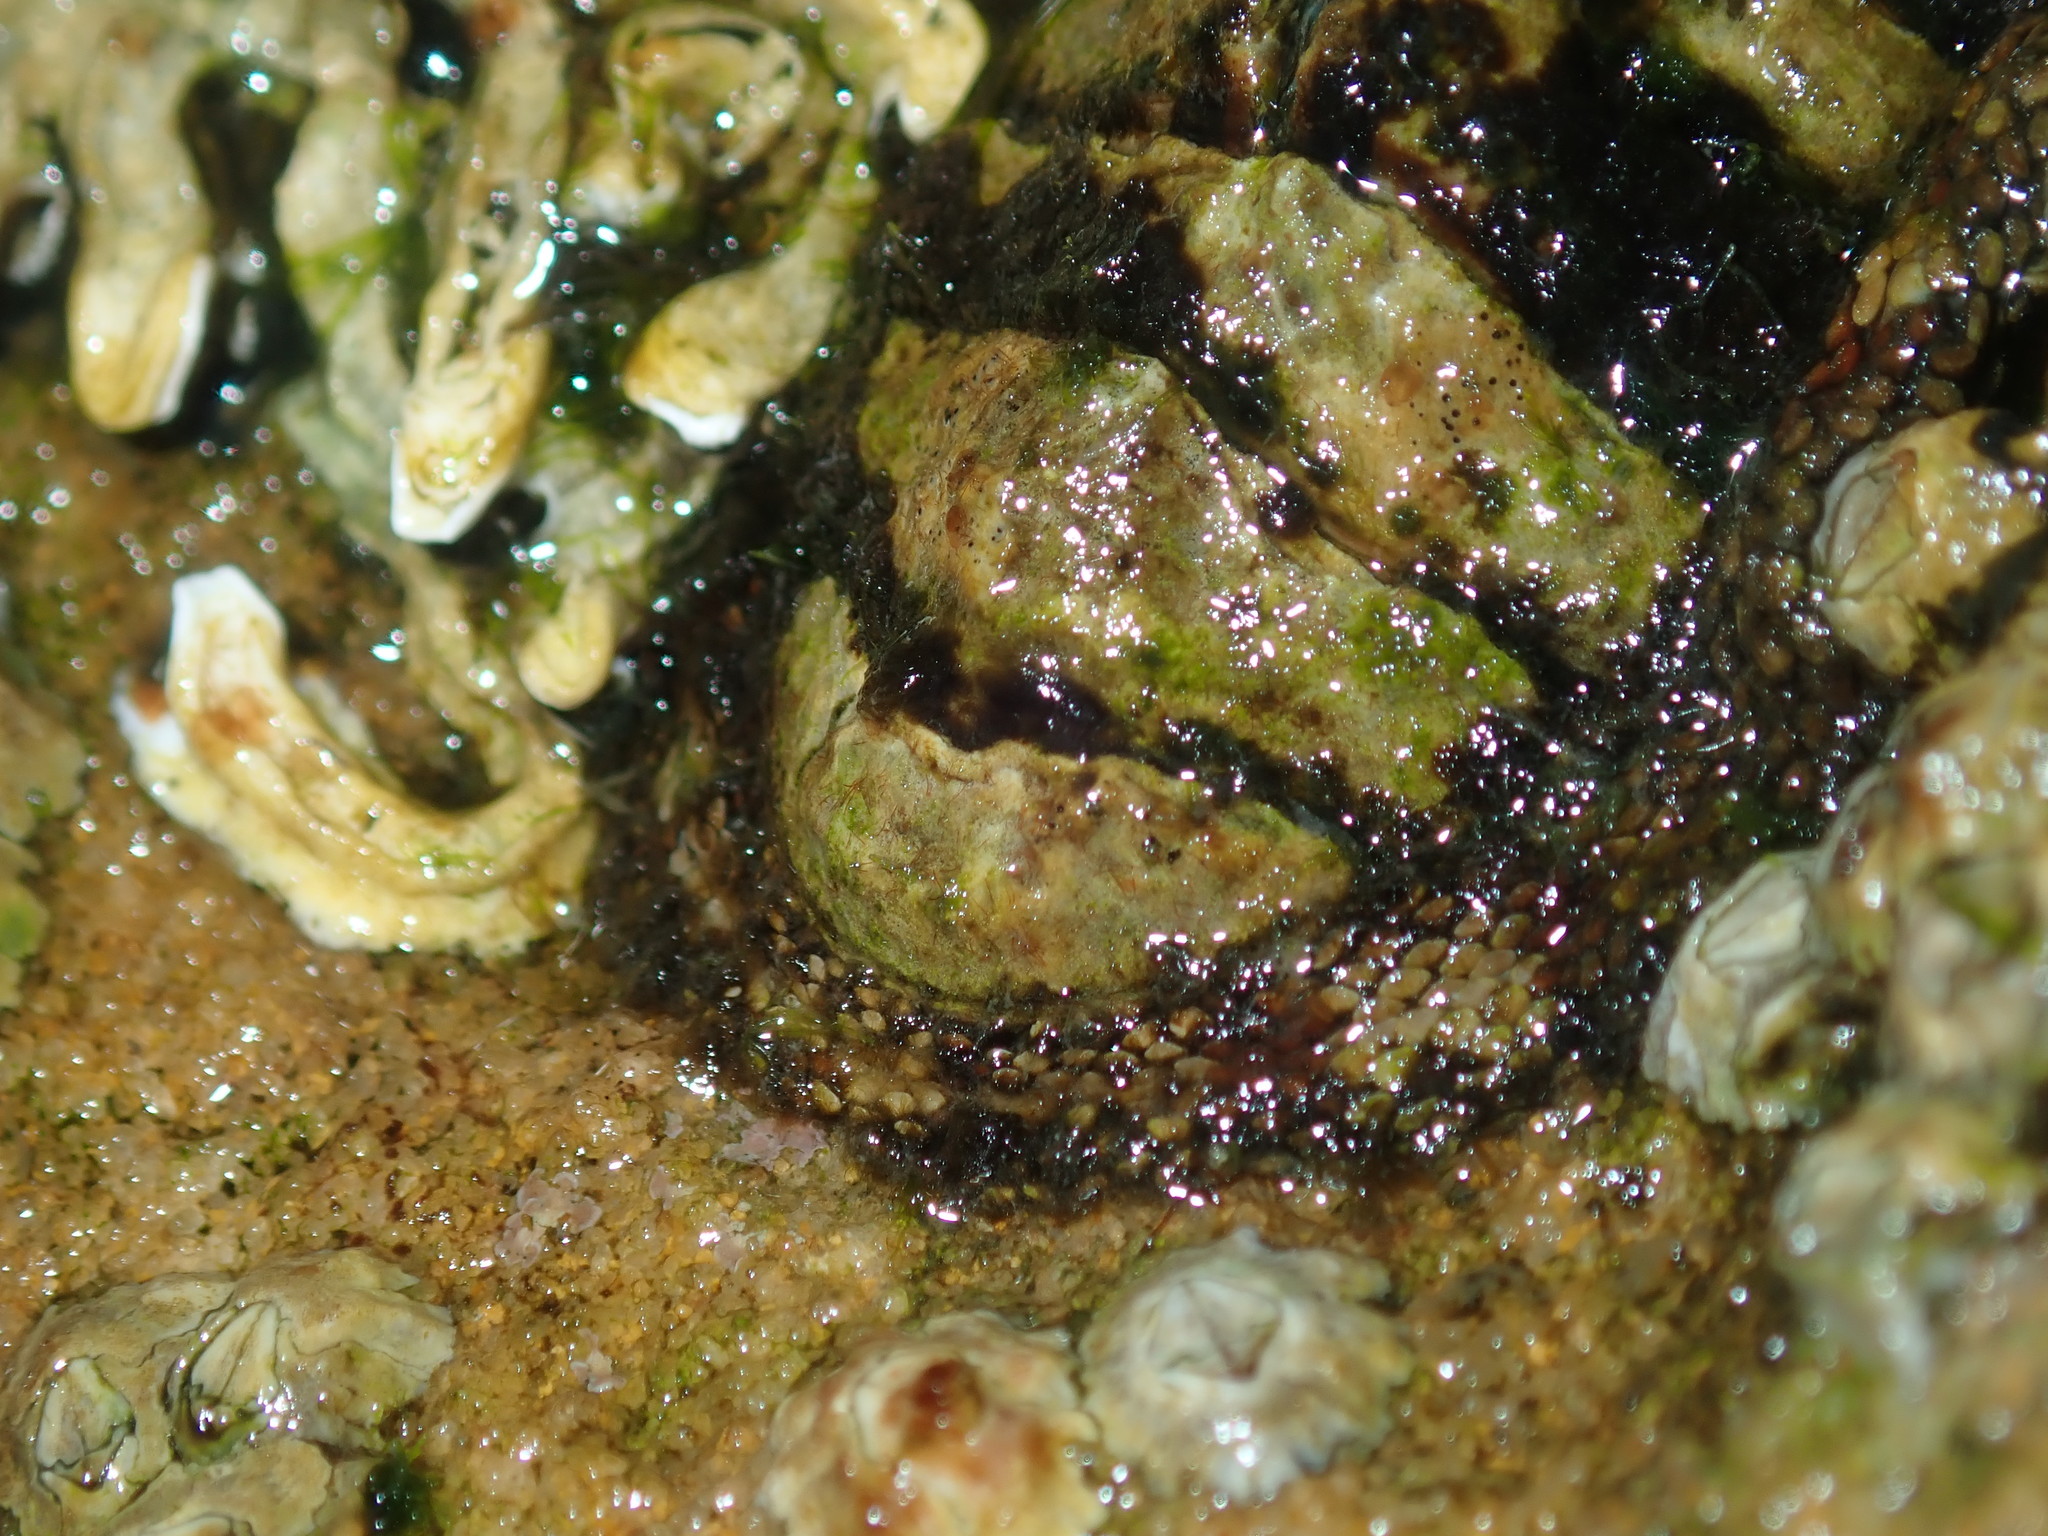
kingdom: Animalia
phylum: Mollusca
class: Polyplacophora
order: Chitonida
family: Chitonidae
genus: Sypharochiton
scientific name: Sypharochiton pelliserpentis
